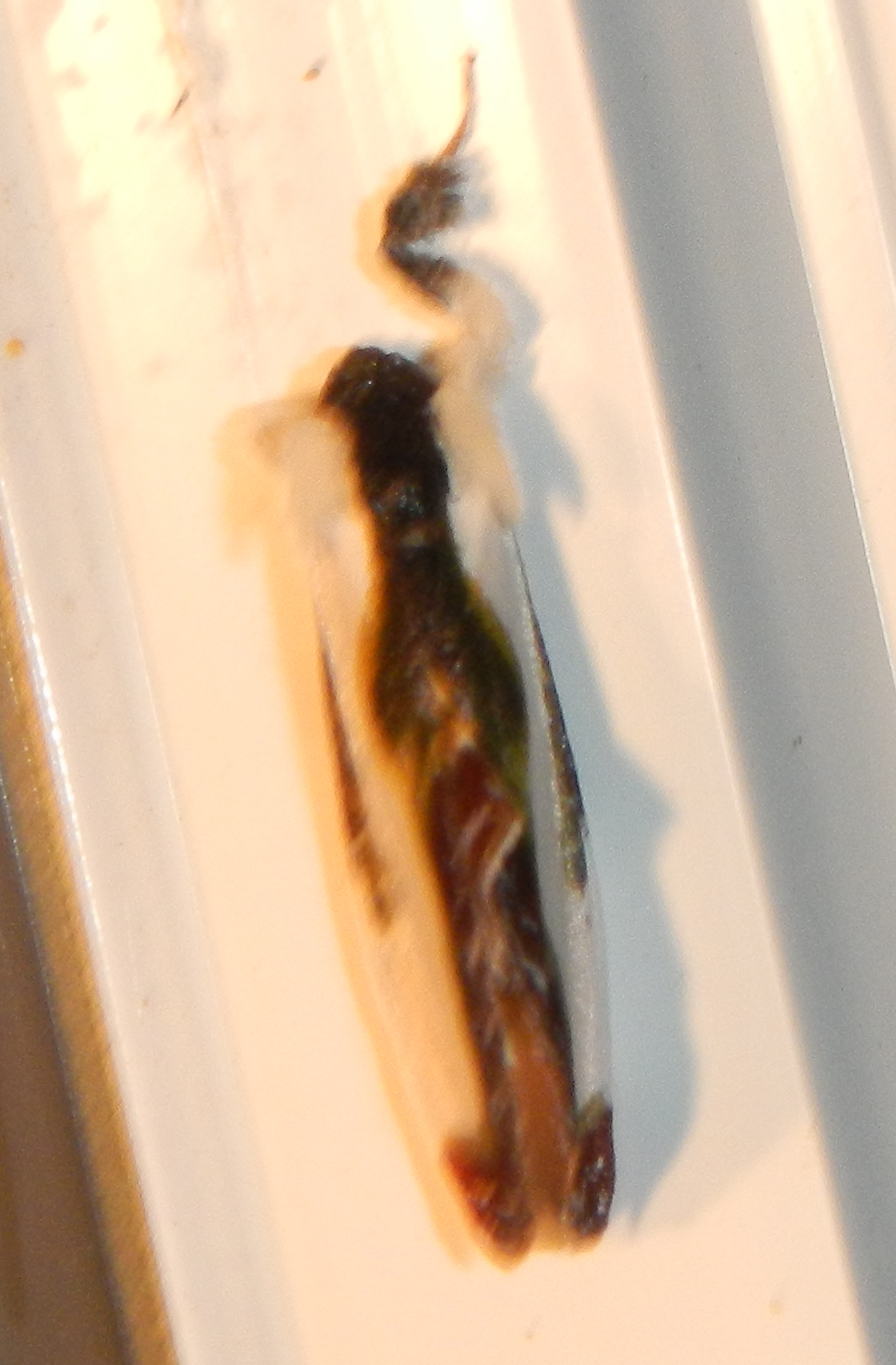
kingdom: Animalia
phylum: Arthropoda
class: Insecta
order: Lepidoptera
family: Noctuidae
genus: Eudryas
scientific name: Eudryas grata
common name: Beautiful wood-nymph
